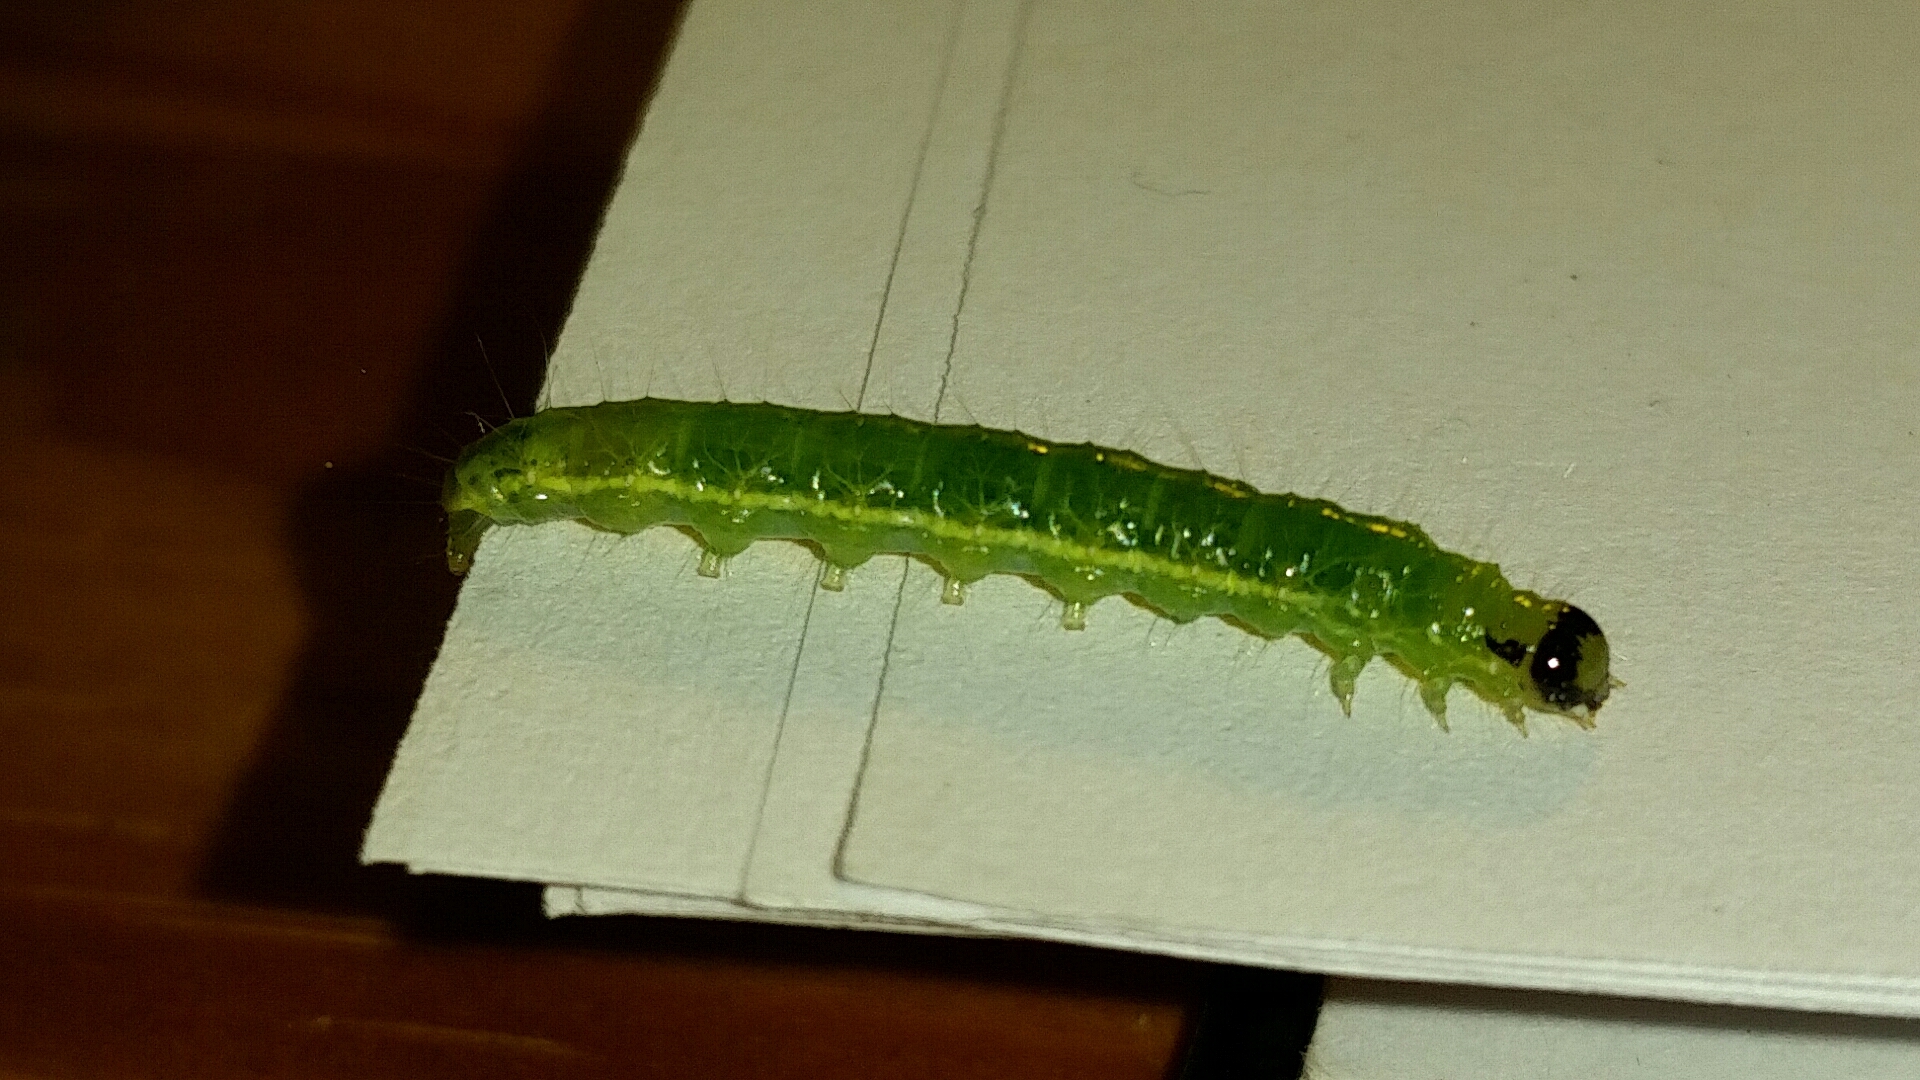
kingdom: Animalia
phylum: Arthropoda
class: Insecta
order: Lepidoptera
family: Crambidae
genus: Condylorrhiza
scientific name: Condylorrhiza vestigialis
